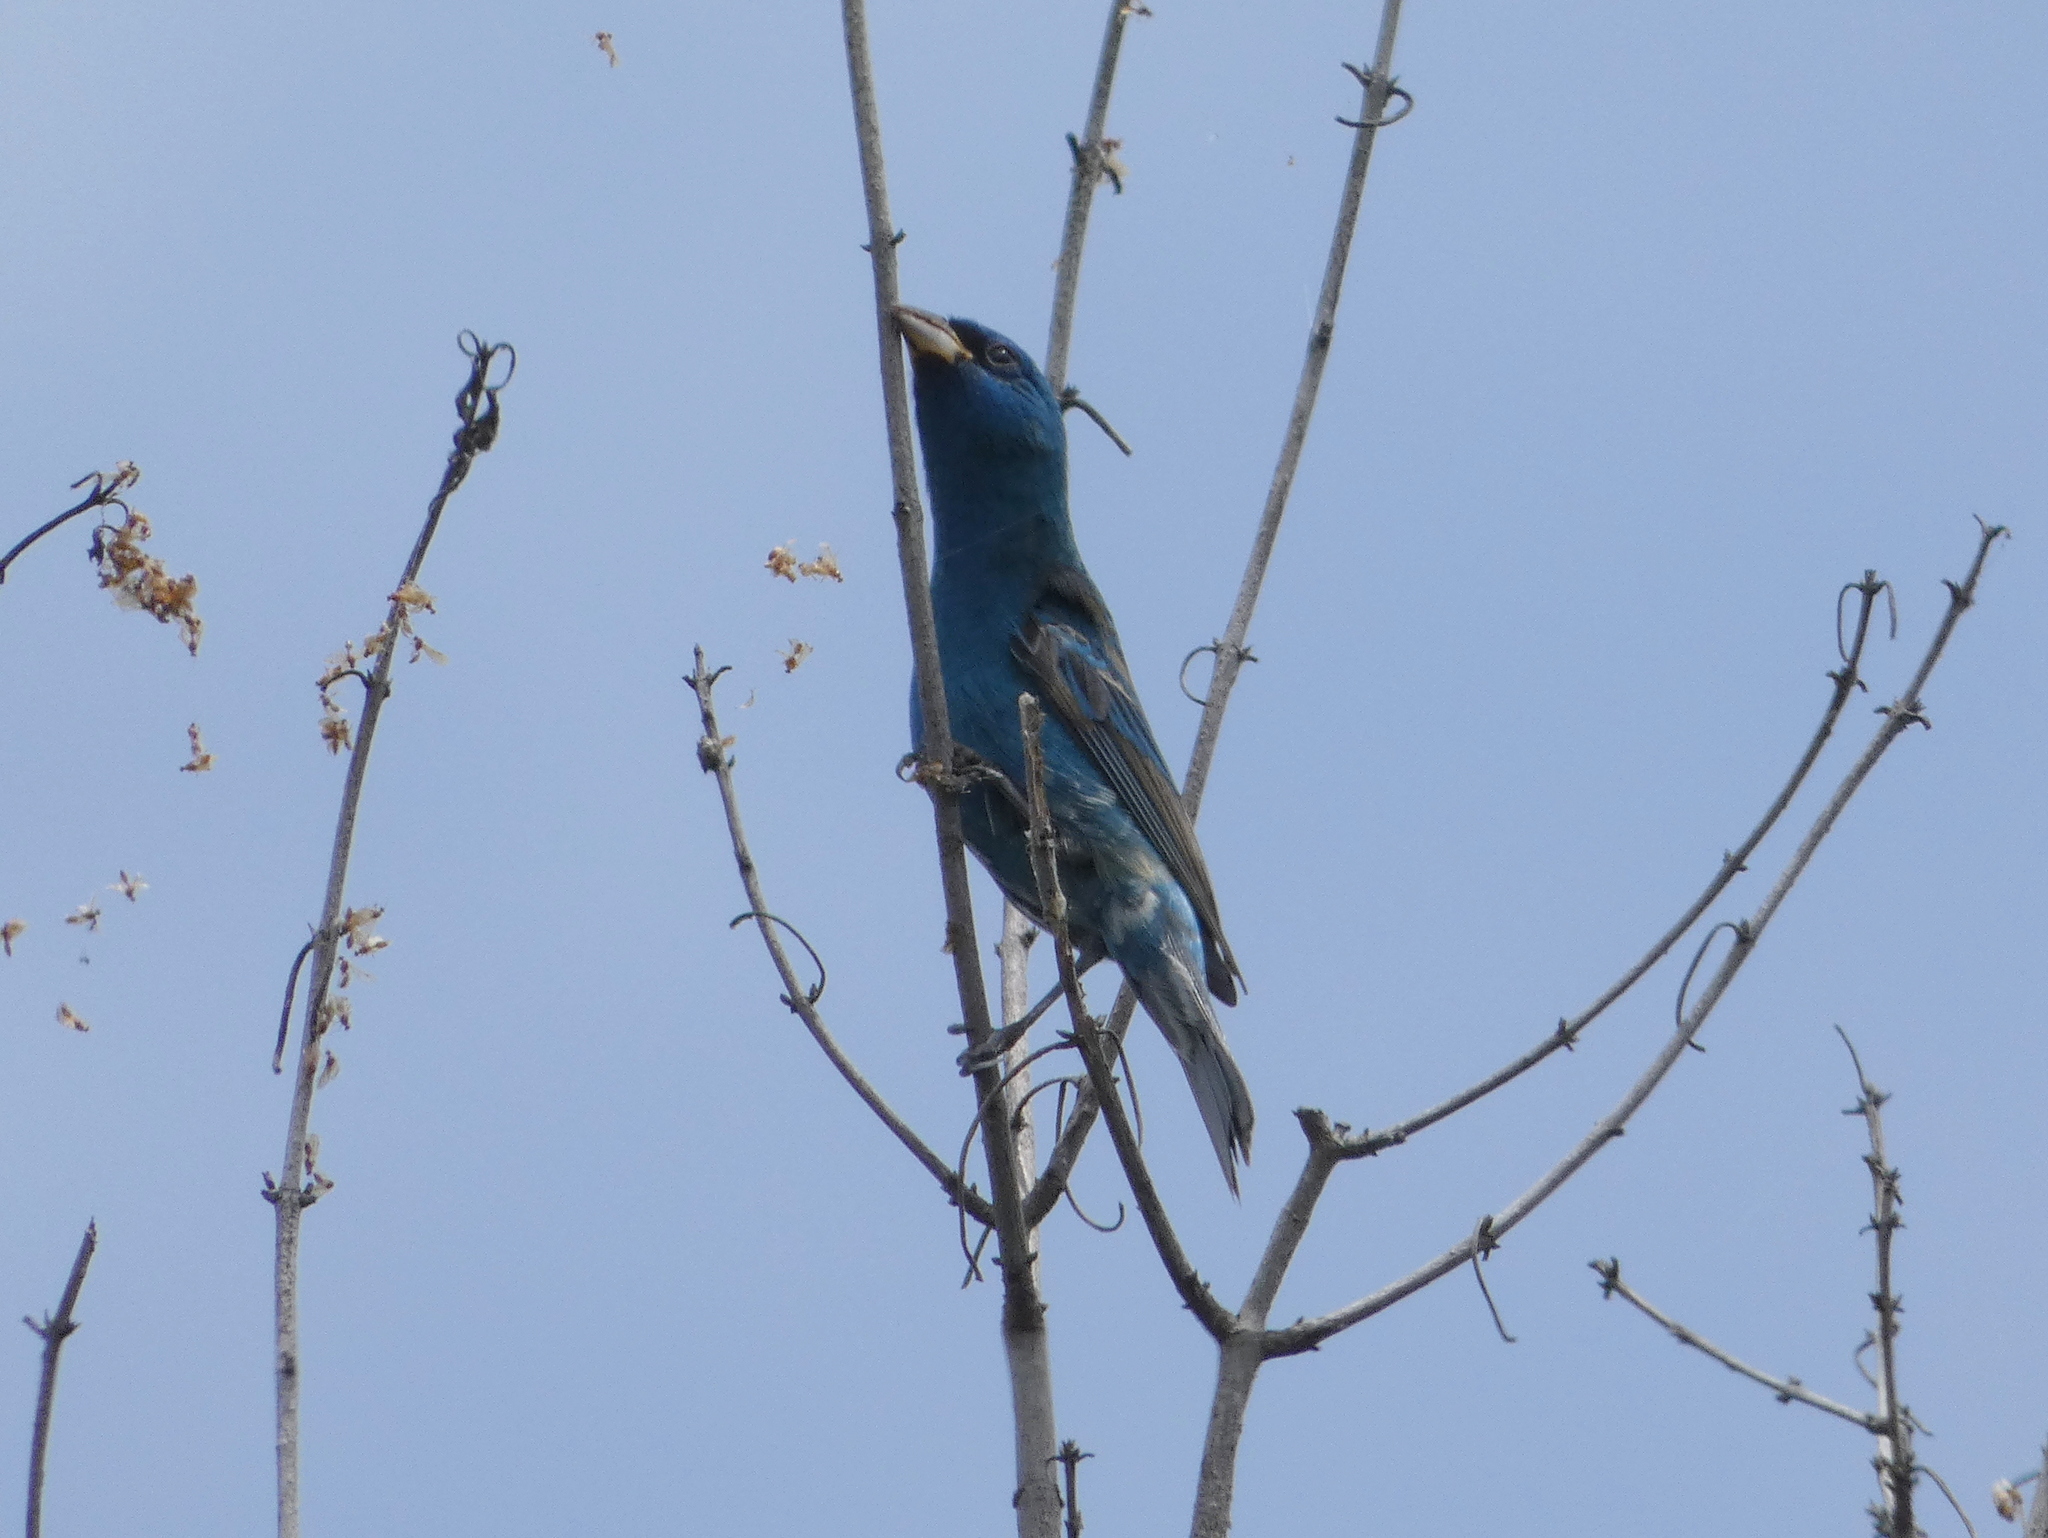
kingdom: Animalia
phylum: Chordata
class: Aves
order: Passeriformes
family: Cardinalidae
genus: Passerina
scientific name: Passerina cyanea
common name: Indigo bunting
